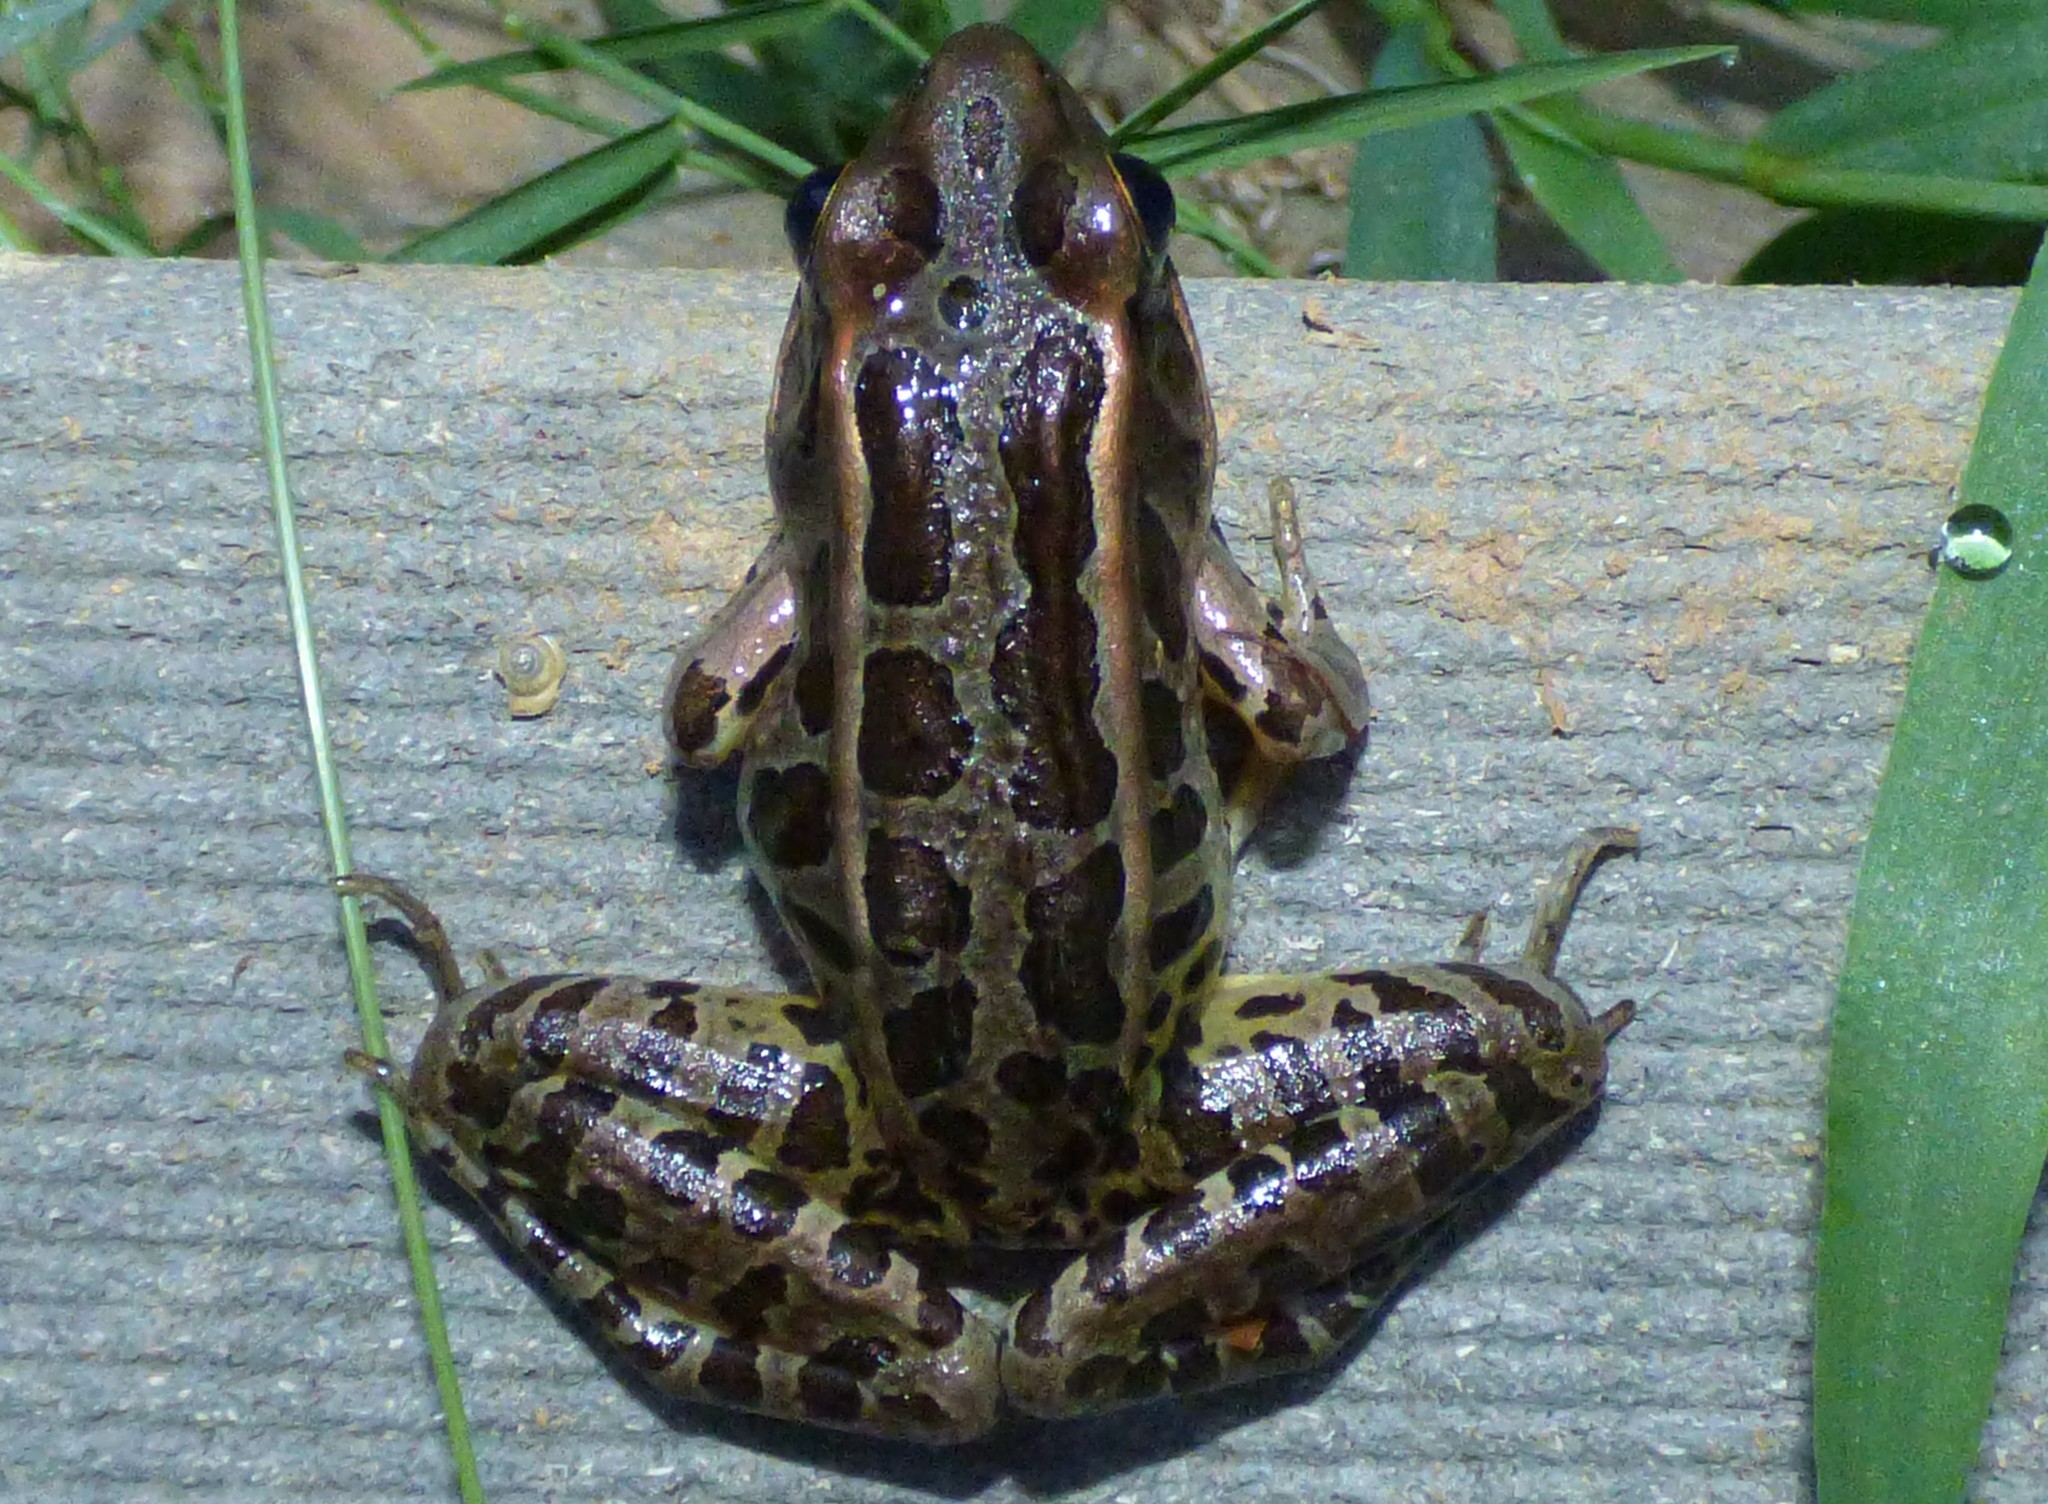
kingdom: Animalia
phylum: Chordata
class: Amphibia
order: Anura
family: Ranidae
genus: Lithobates
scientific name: Lithobates palustris
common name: Pickerel frog
